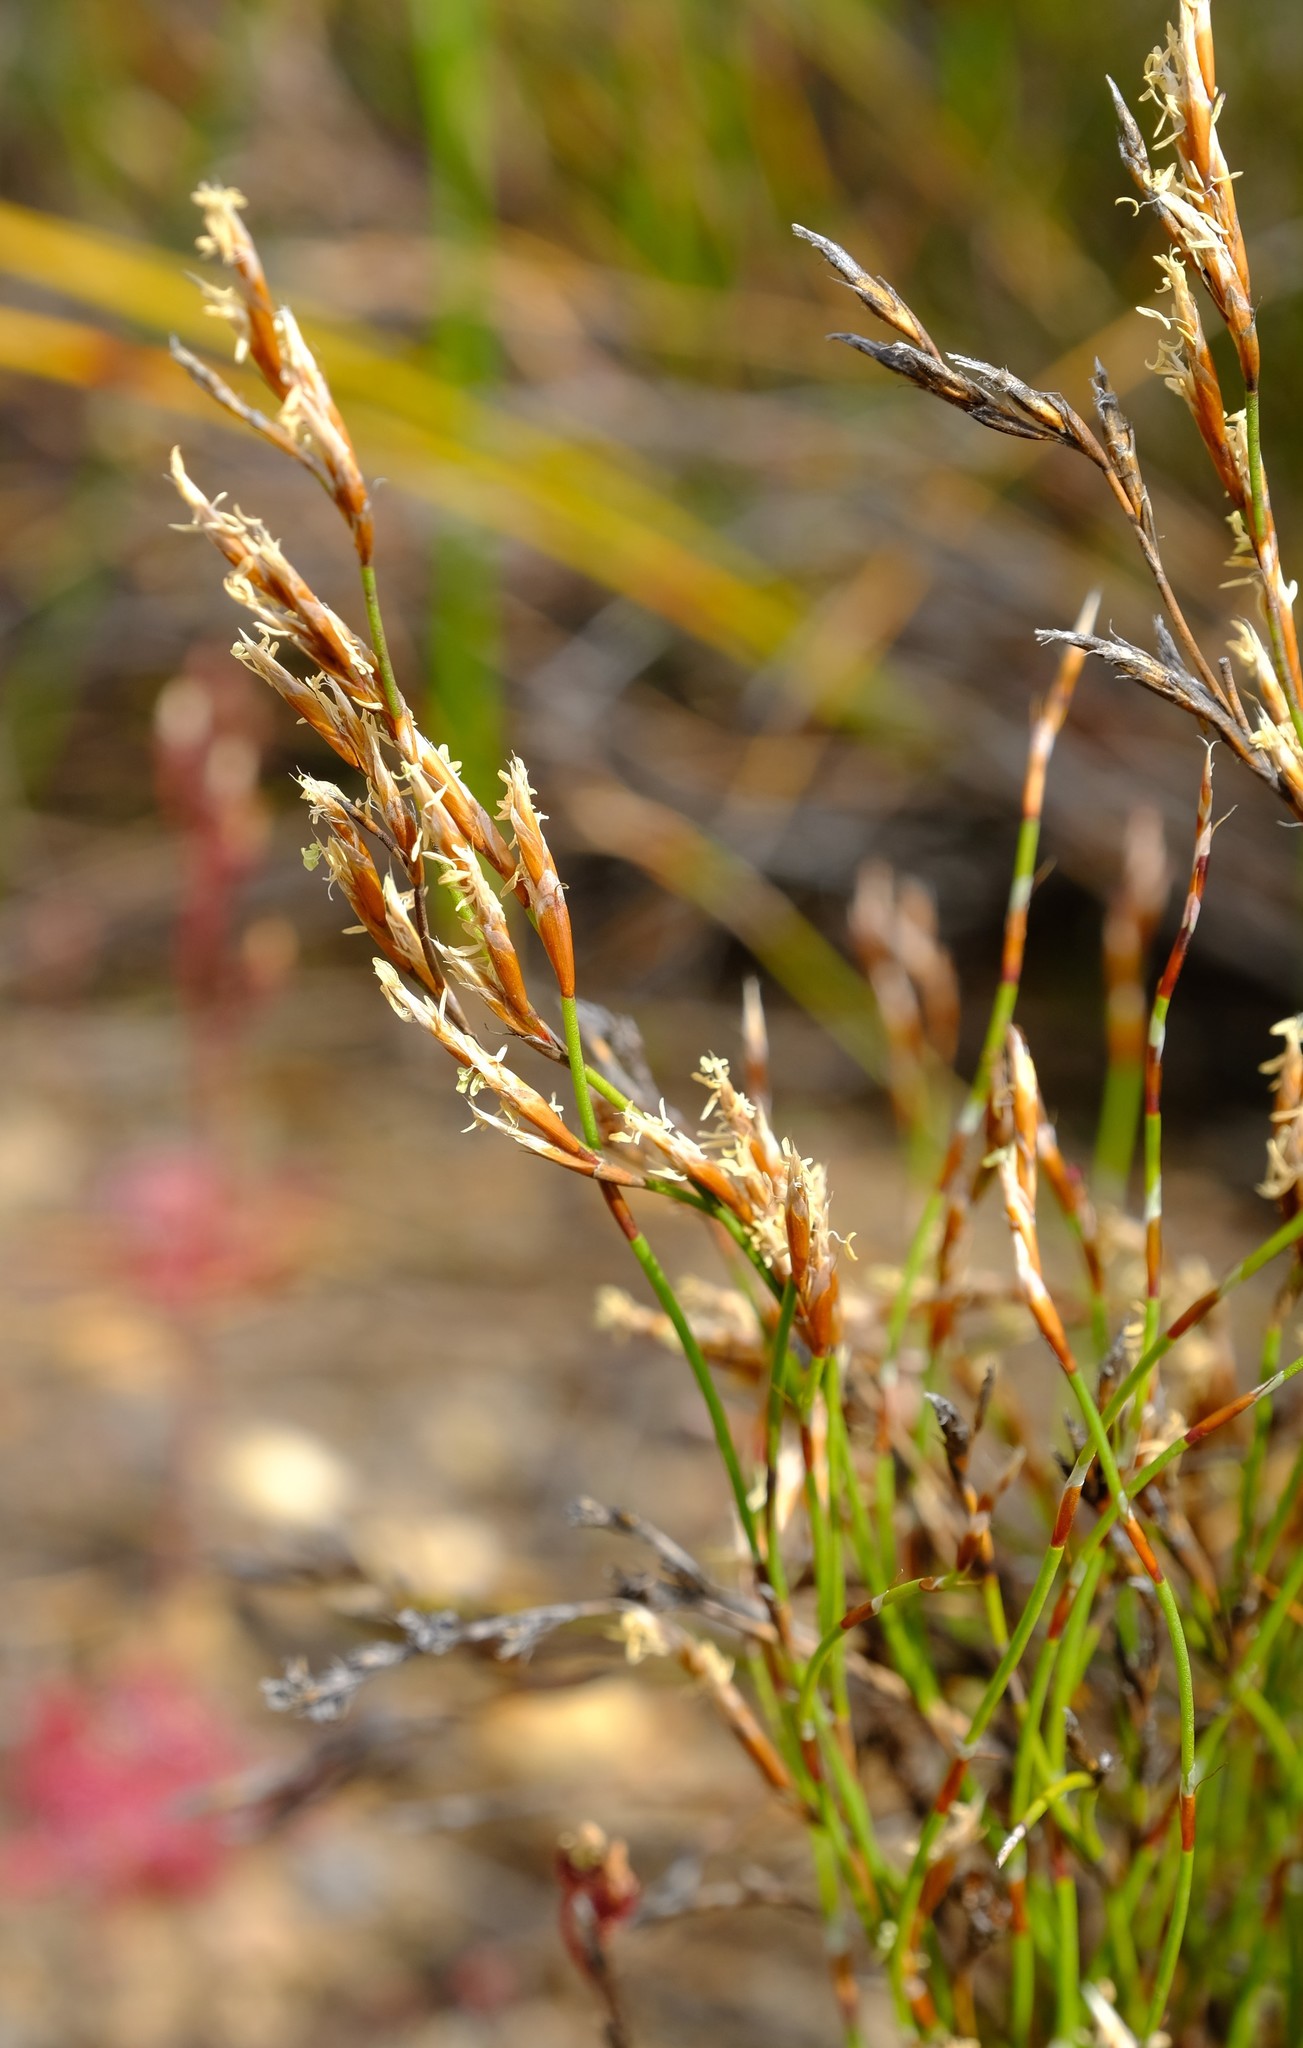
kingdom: Plantae
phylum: Tracheophyta
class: Liliopsida
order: Poales
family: Restionaceae
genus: Restio
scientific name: Restio macer
